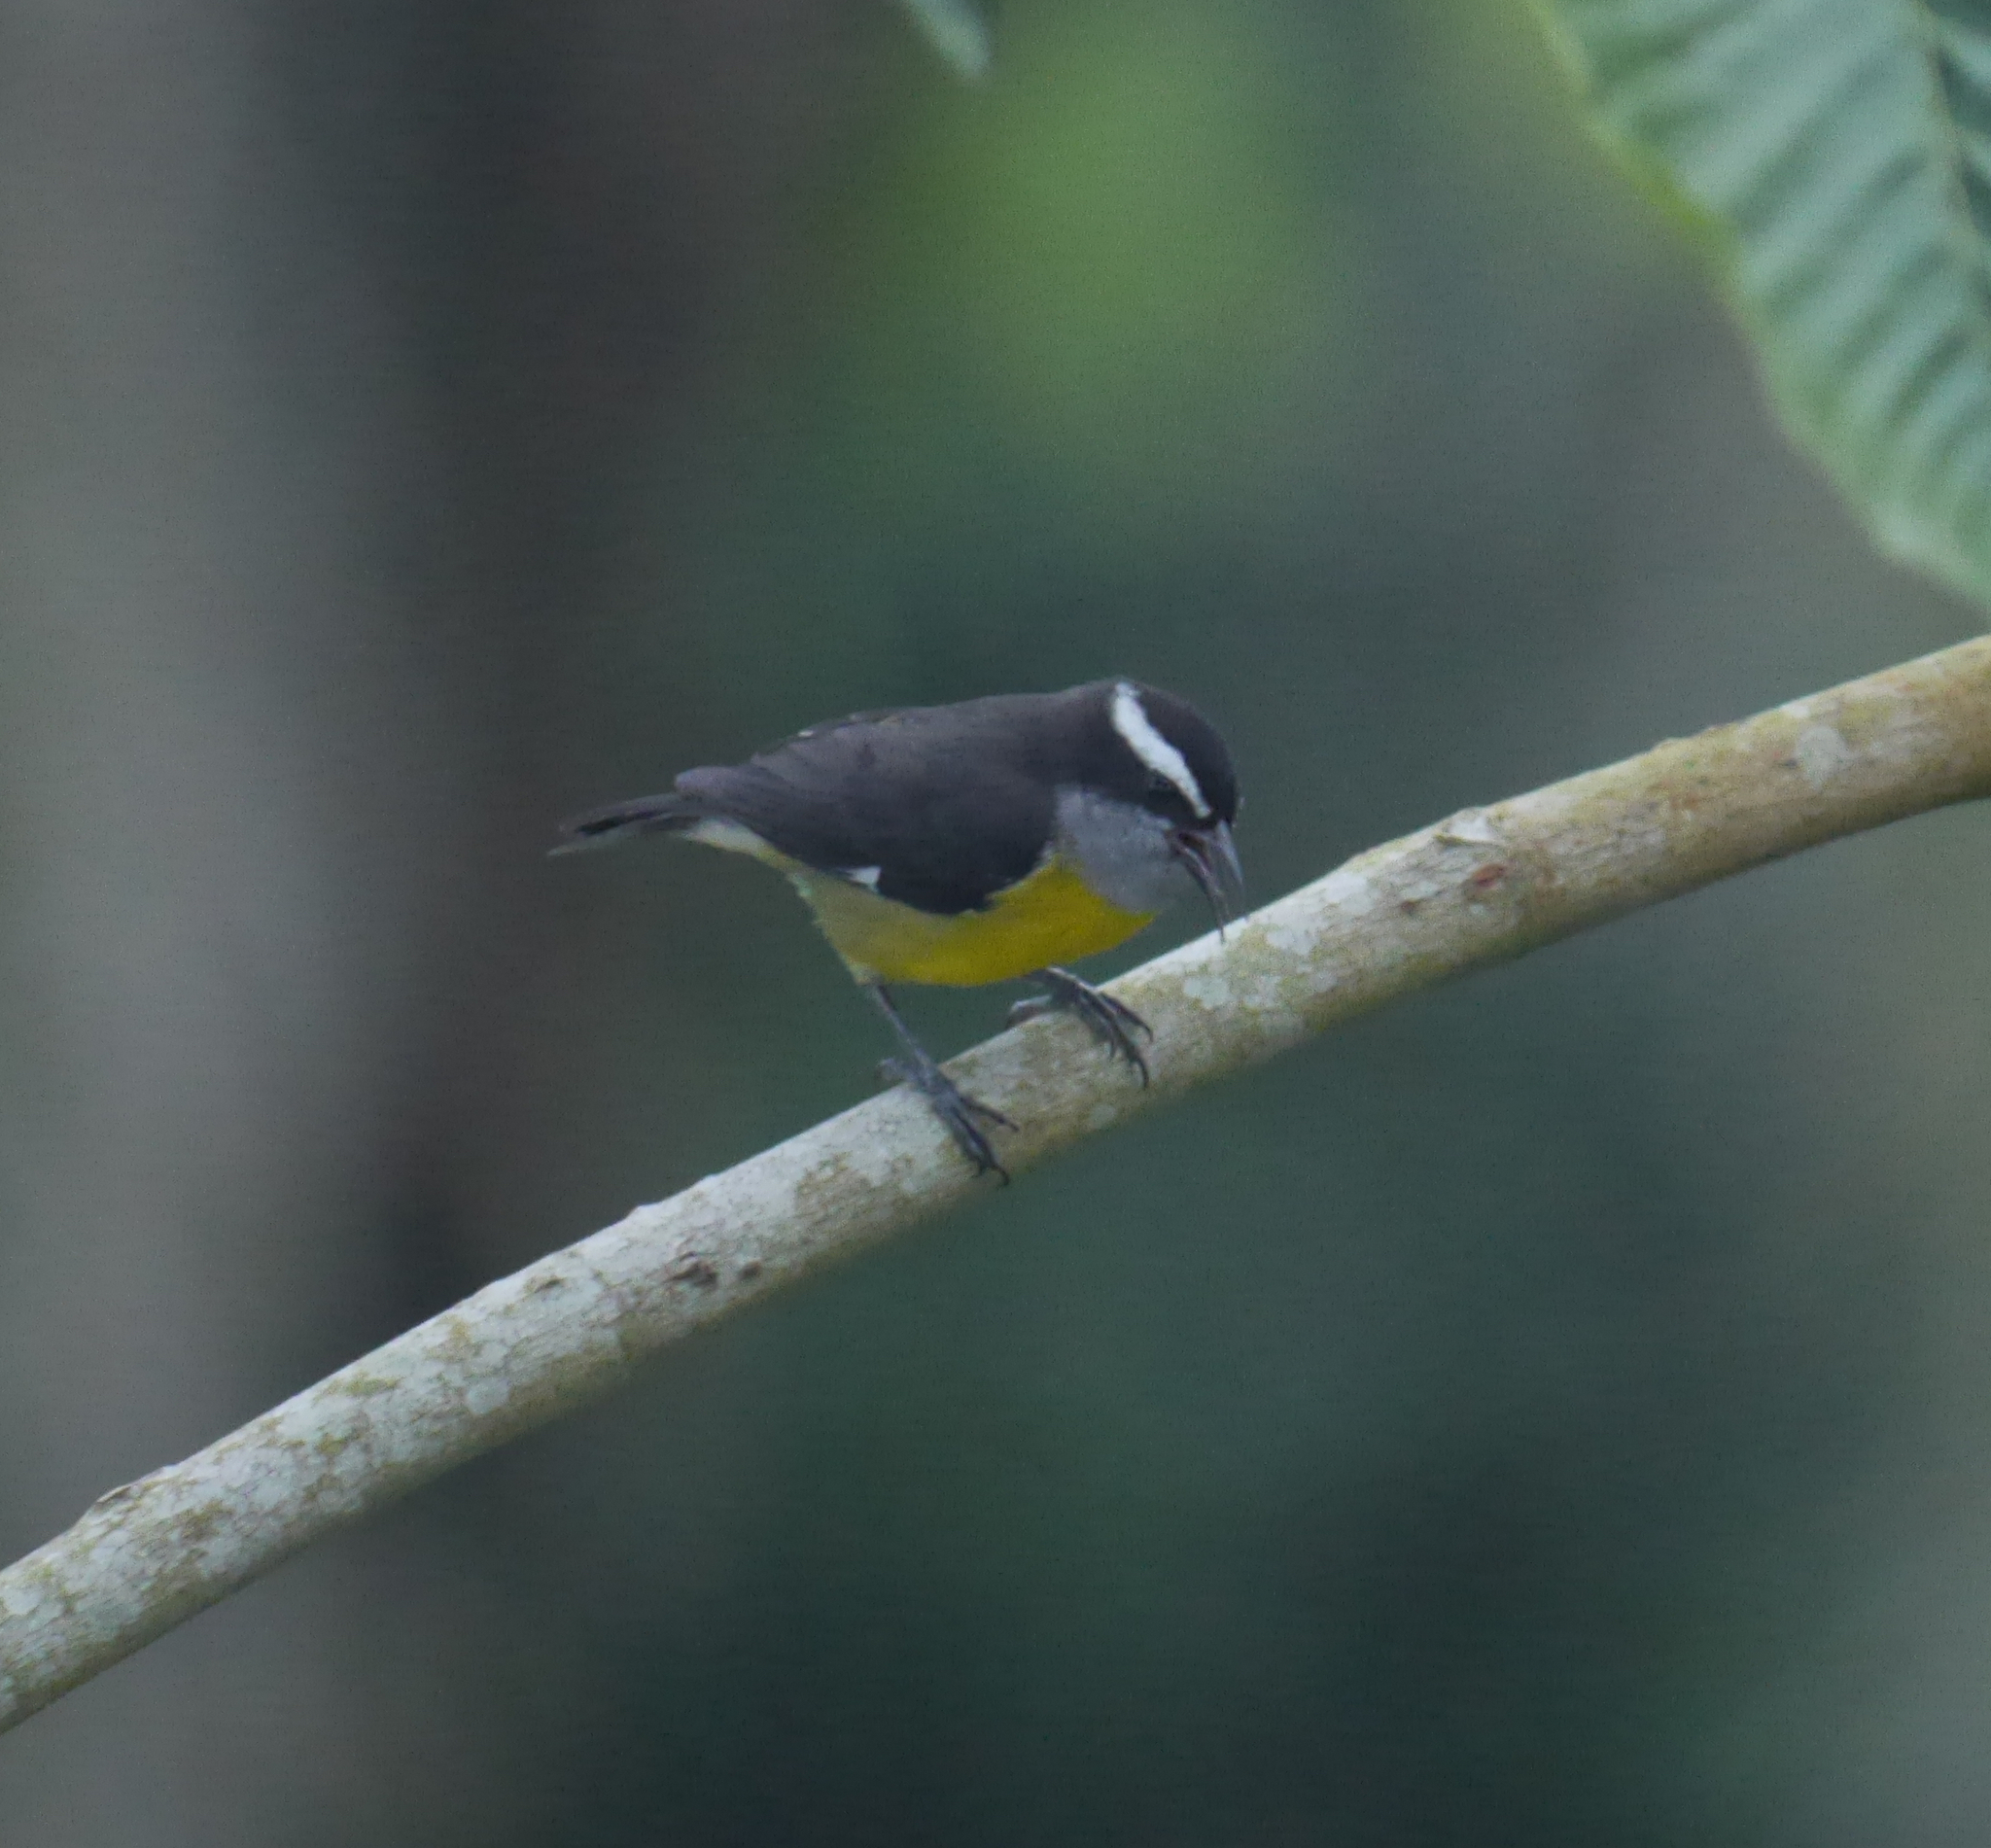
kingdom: Animalia
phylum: Chordata
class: Aves
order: Passeriformes
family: Thraupidae
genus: Coereba
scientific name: Coereba flaveola
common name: Bananaquit
